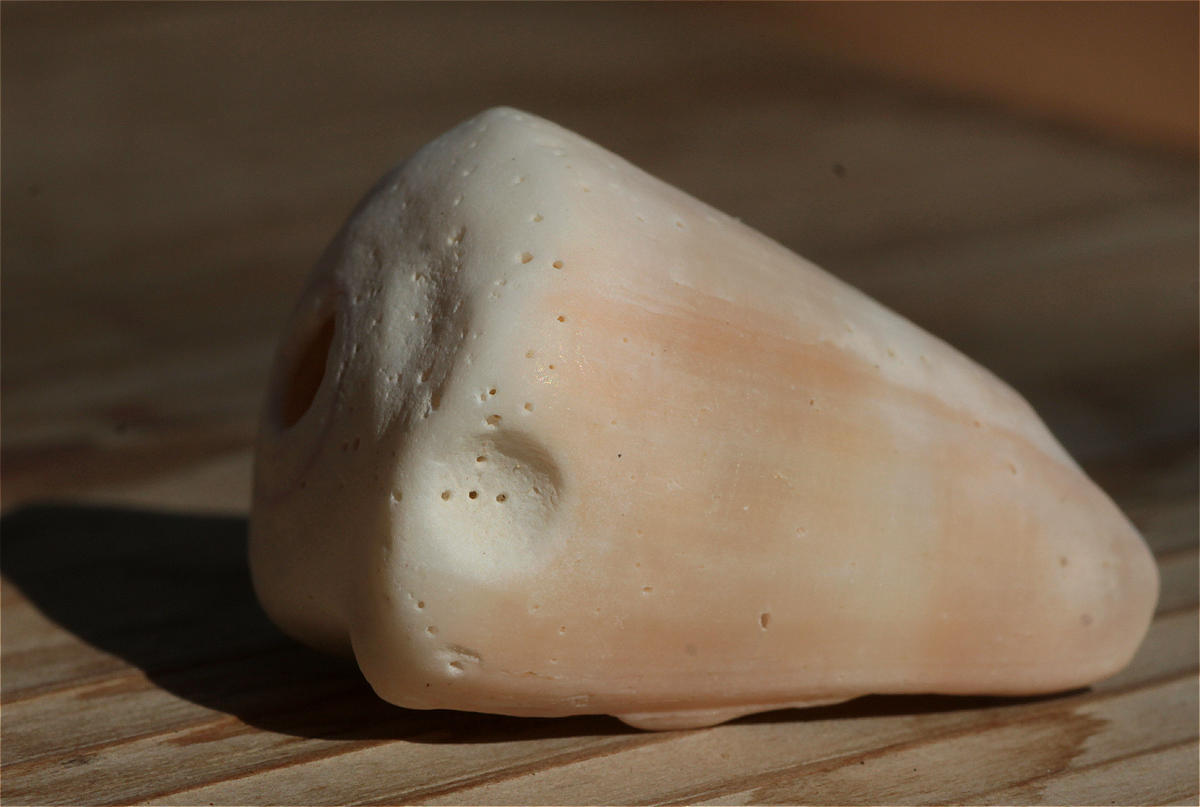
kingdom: Animalia
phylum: Mollusca
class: Gastropoda
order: Neogastropoda
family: Conidae
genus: Conus
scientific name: Conus flavidus
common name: Golden-yellow cone
